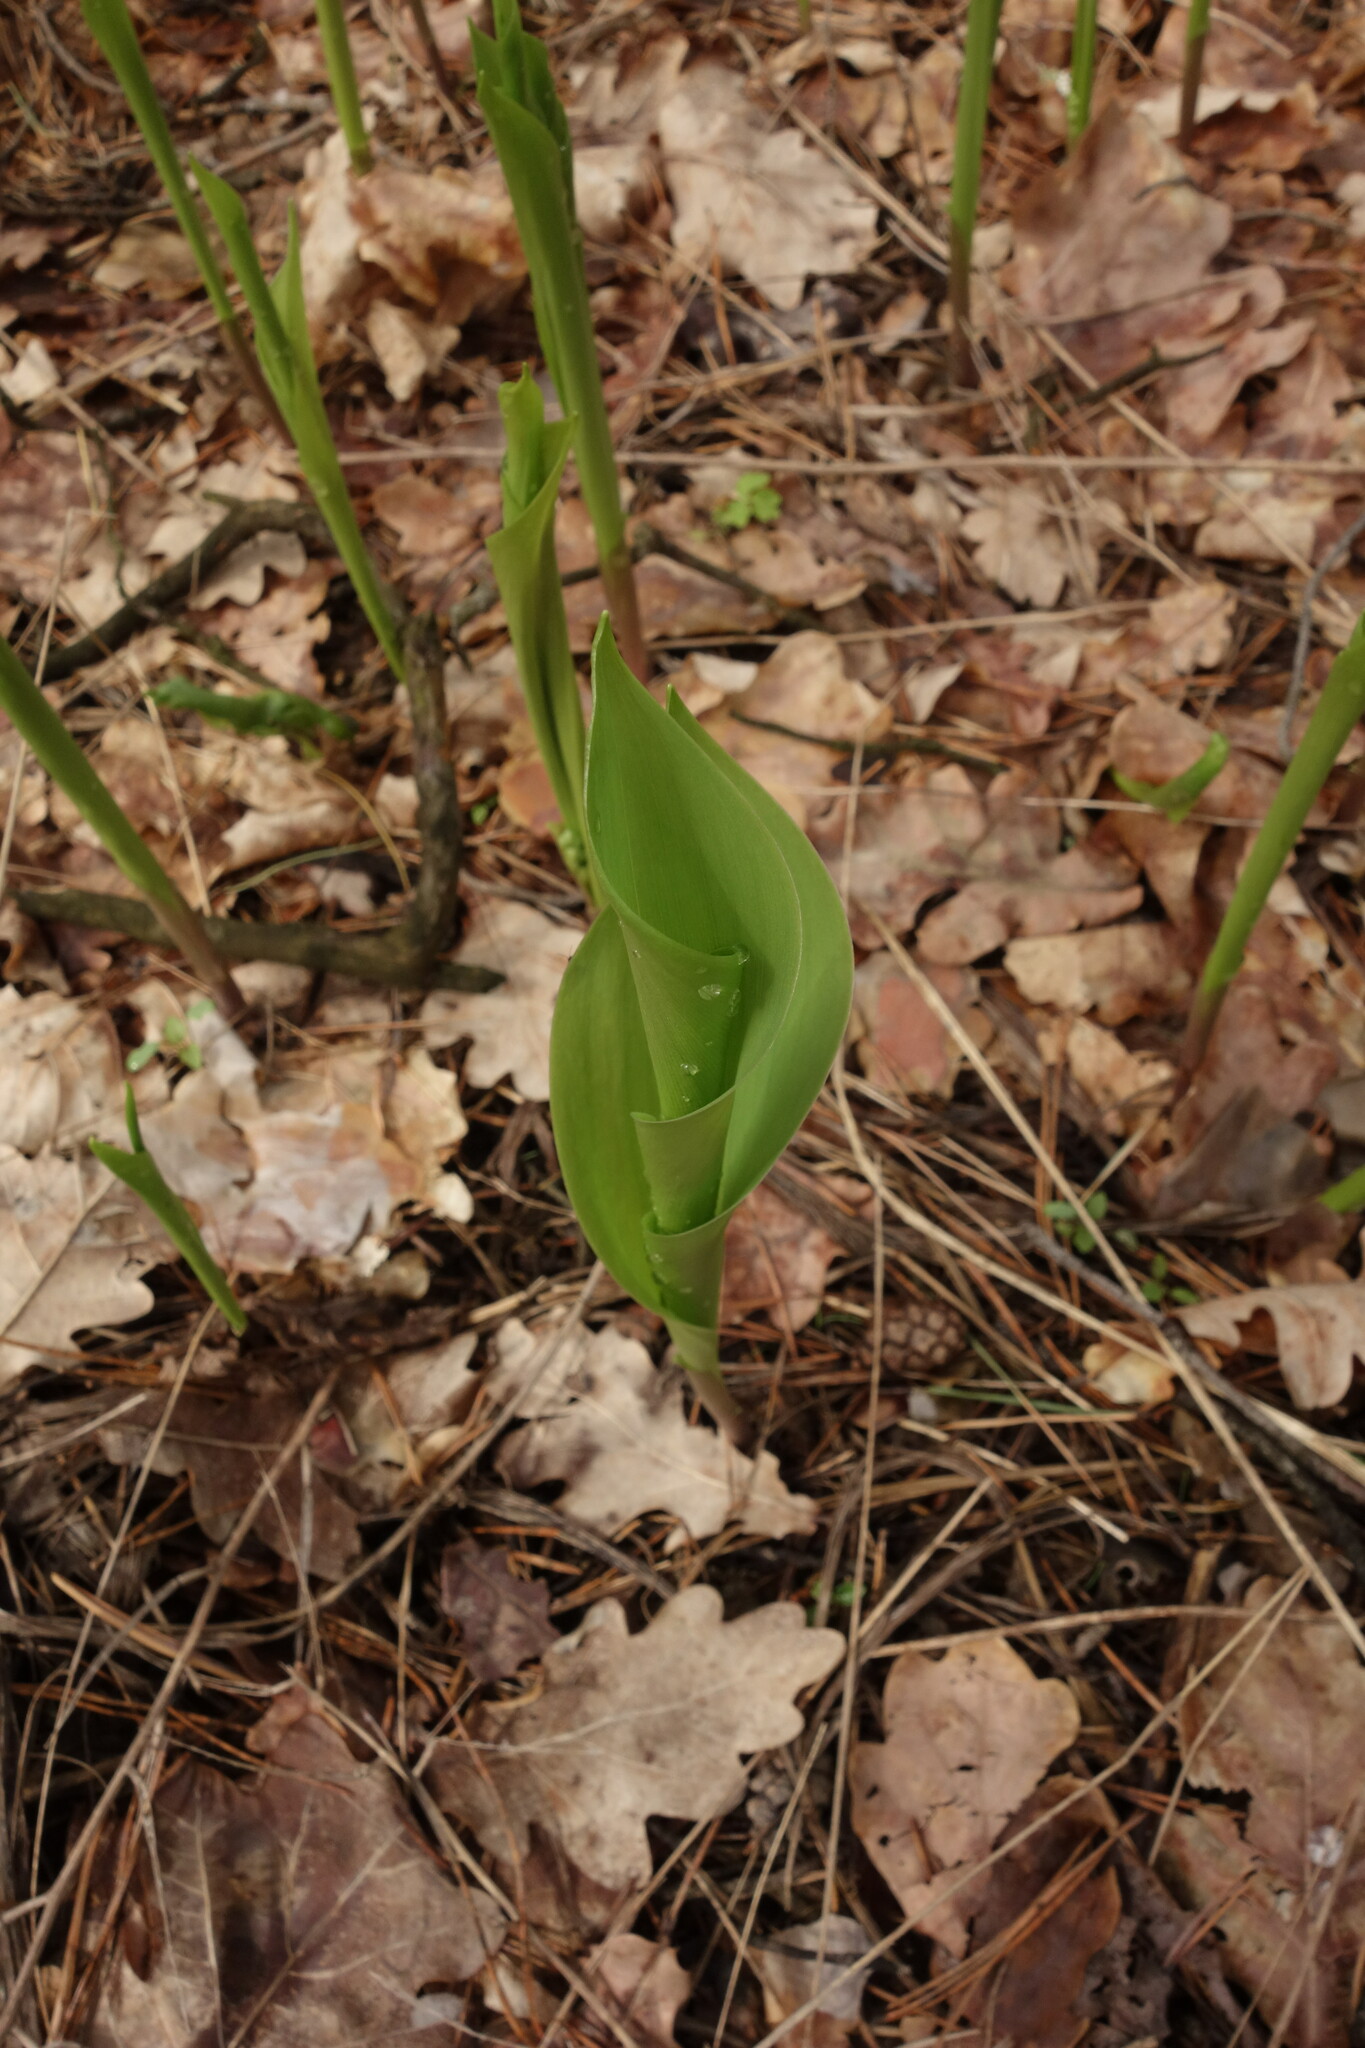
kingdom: Plantae
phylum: Tracheophyta
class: Liliopsida
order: Asparagales
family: Asparagaceae
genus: Convallaria
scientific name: Convallaria majalis
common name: Lily-of-the-valley
